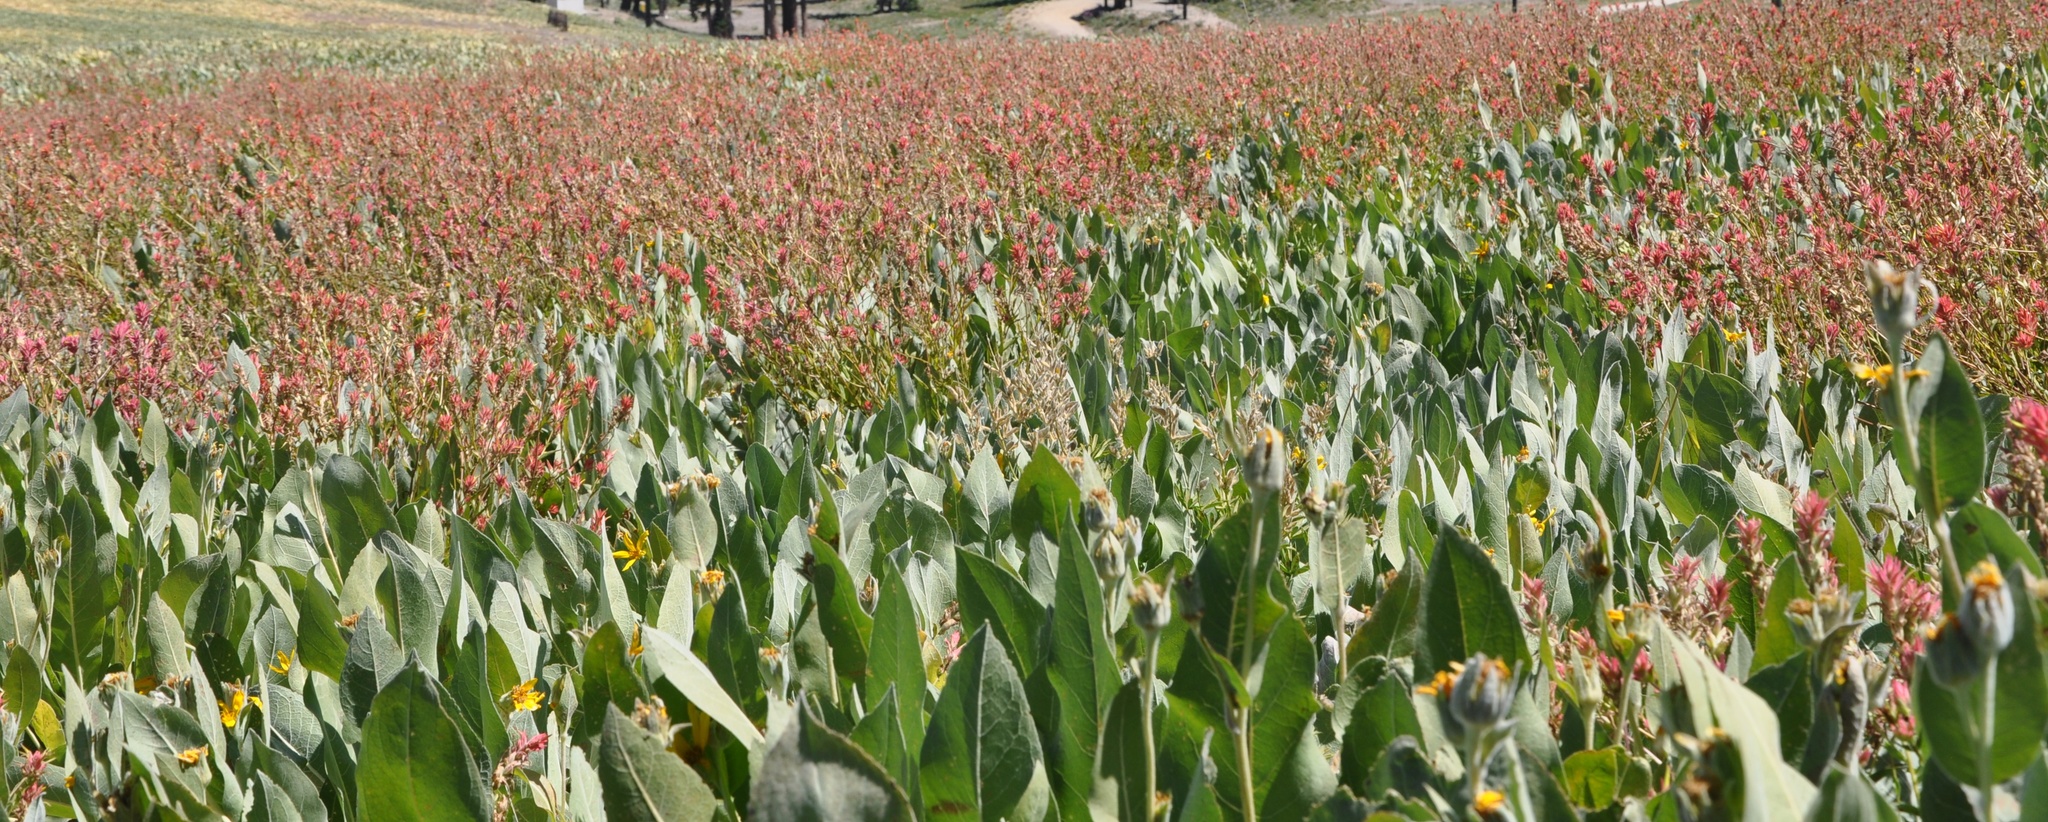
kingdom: Plantae
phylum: Tracheophyta
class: Magnoliopsida
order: Asterales
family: Asteraceae
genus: Wyethia
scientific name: Wyethia mollis
